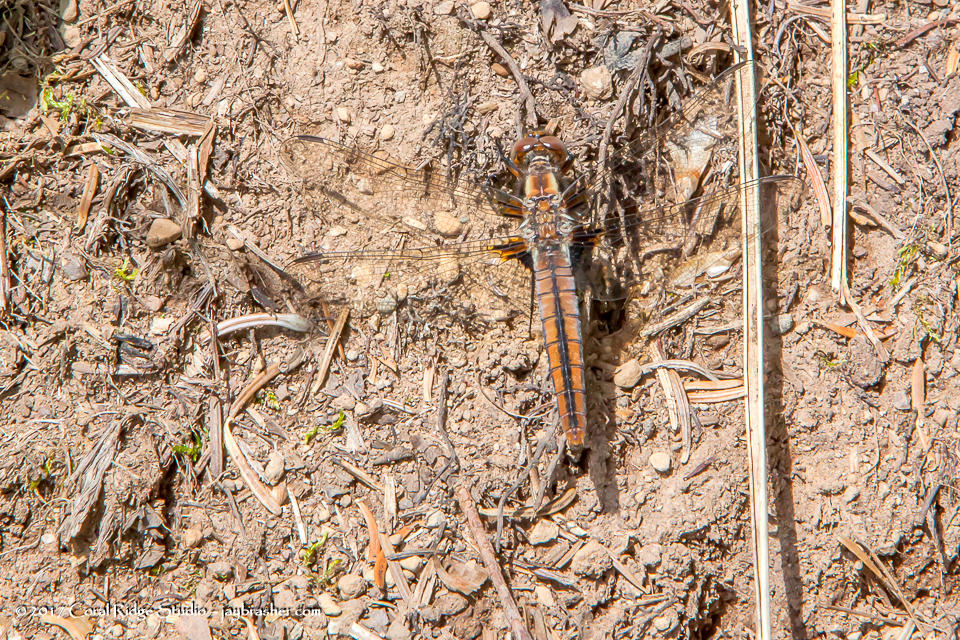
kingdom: Animalia
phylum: Arthropoda
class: Insecta
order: Odonata
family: Libellulidae
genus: Ladona
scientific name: Ladona julia
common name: Chalk-fronted corporal
